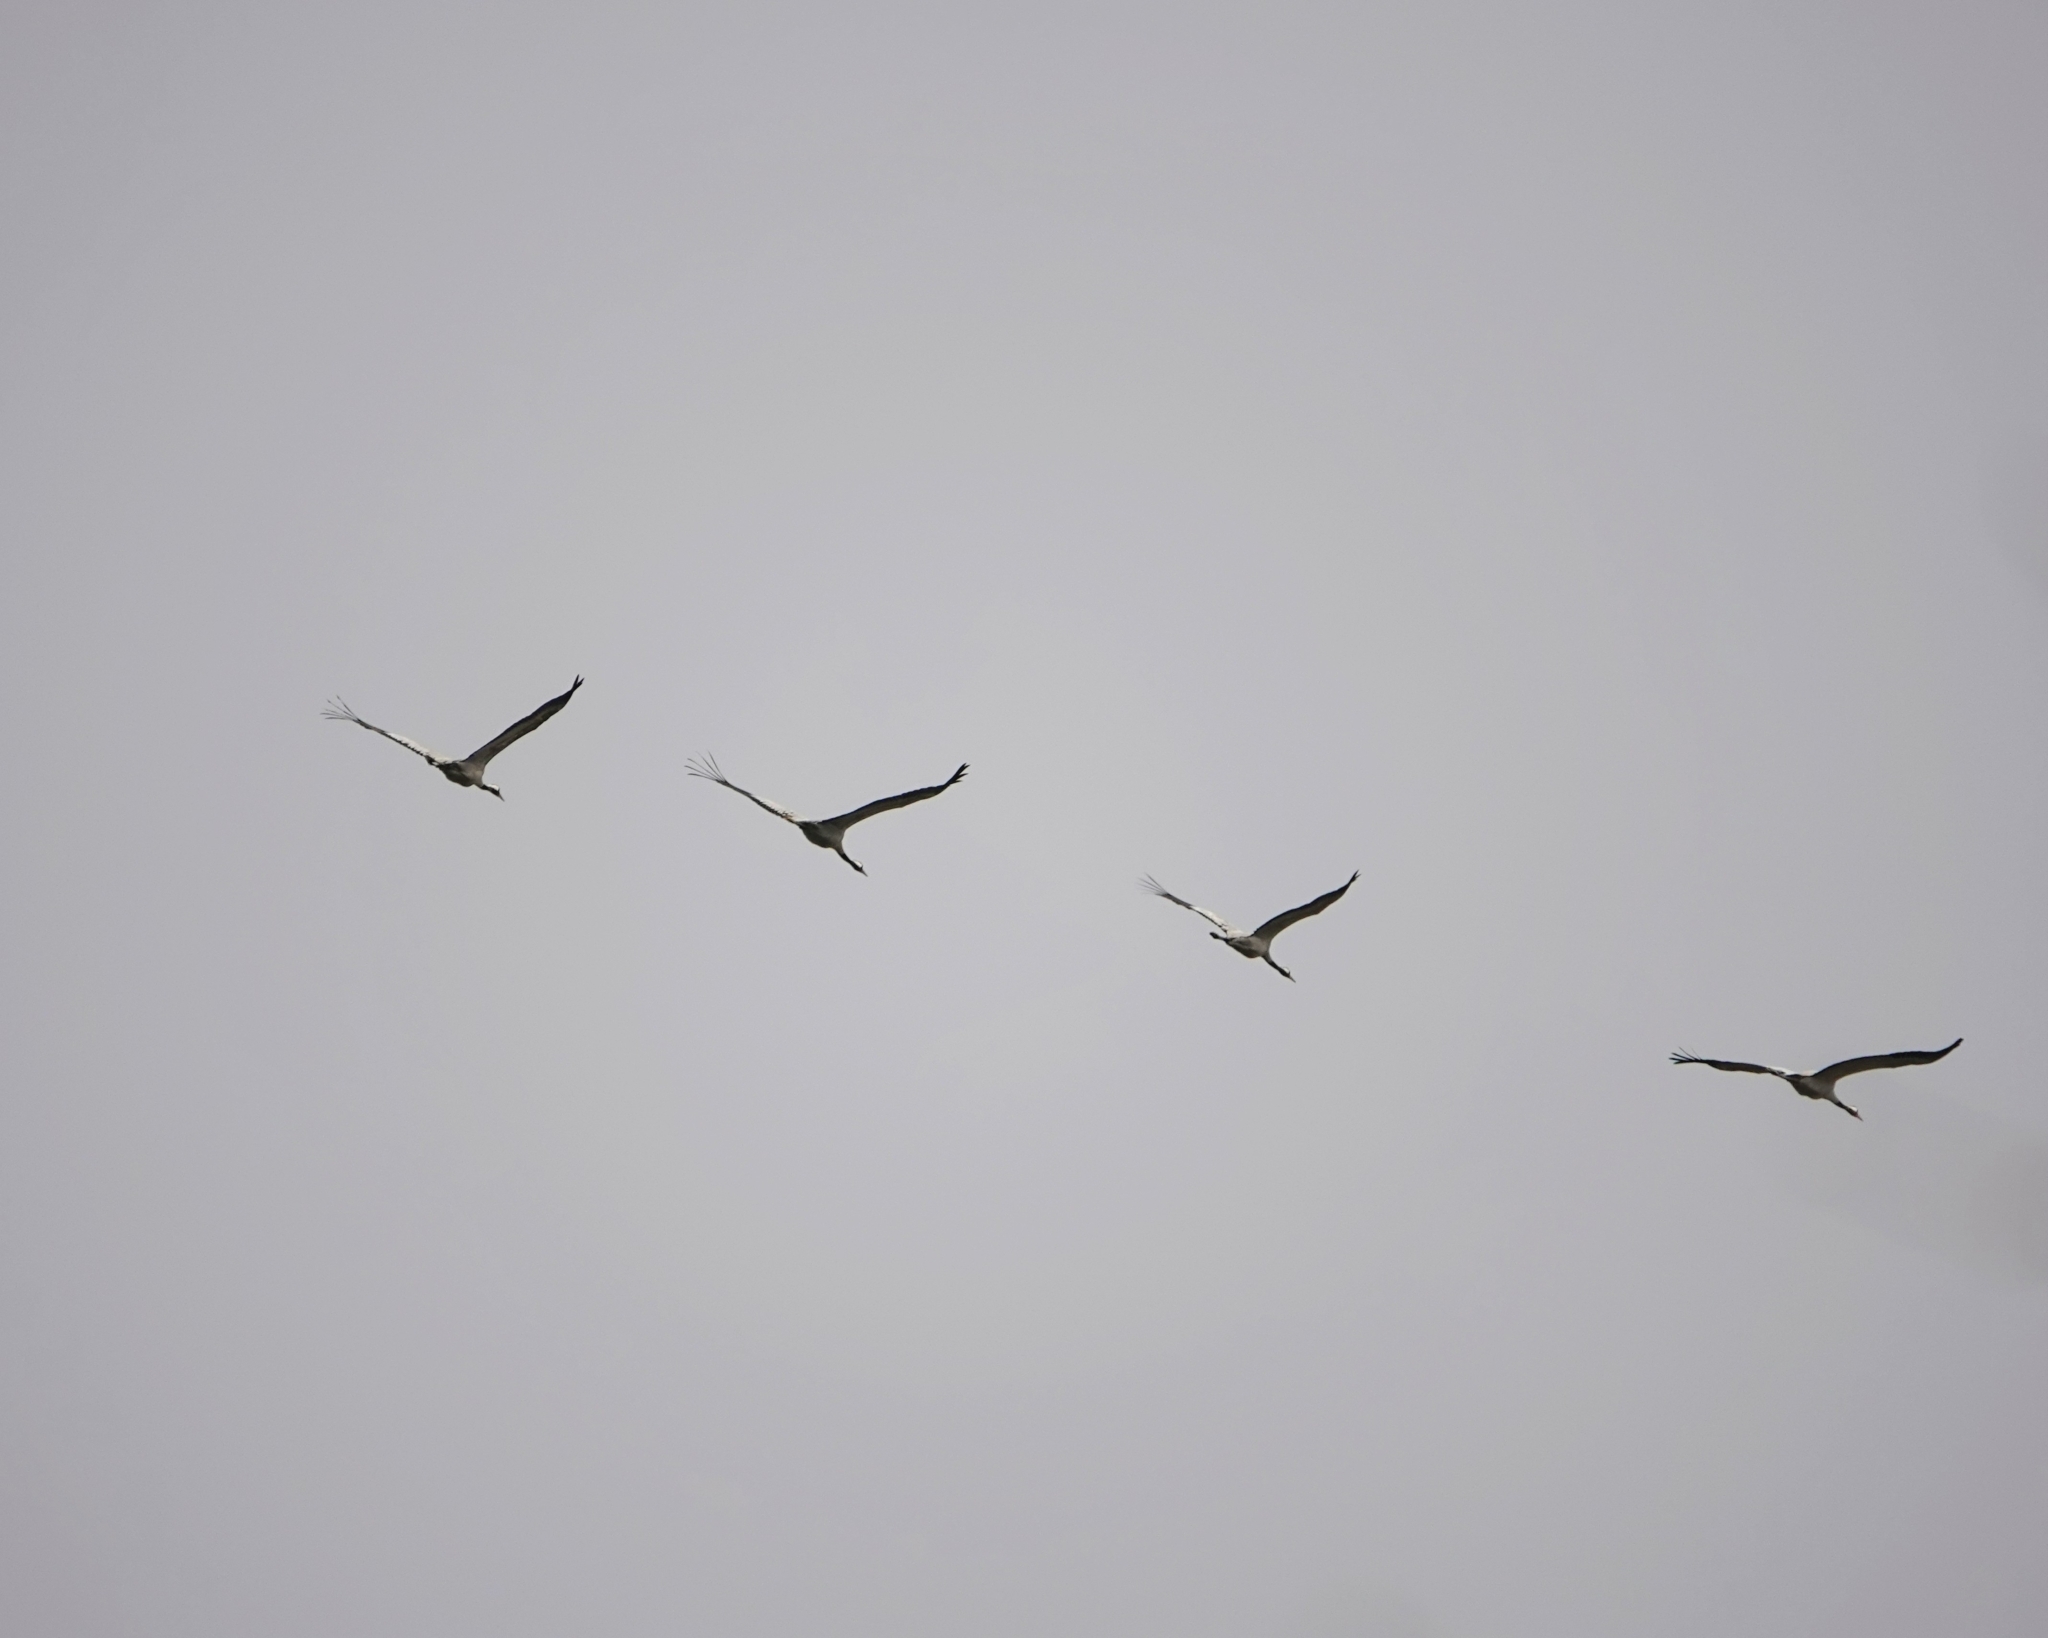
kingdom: Animalia
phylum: Chordata
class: Aves
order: Gruiformes
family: Gruidae
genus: Grus
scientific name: Grus grus
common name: Common crane
